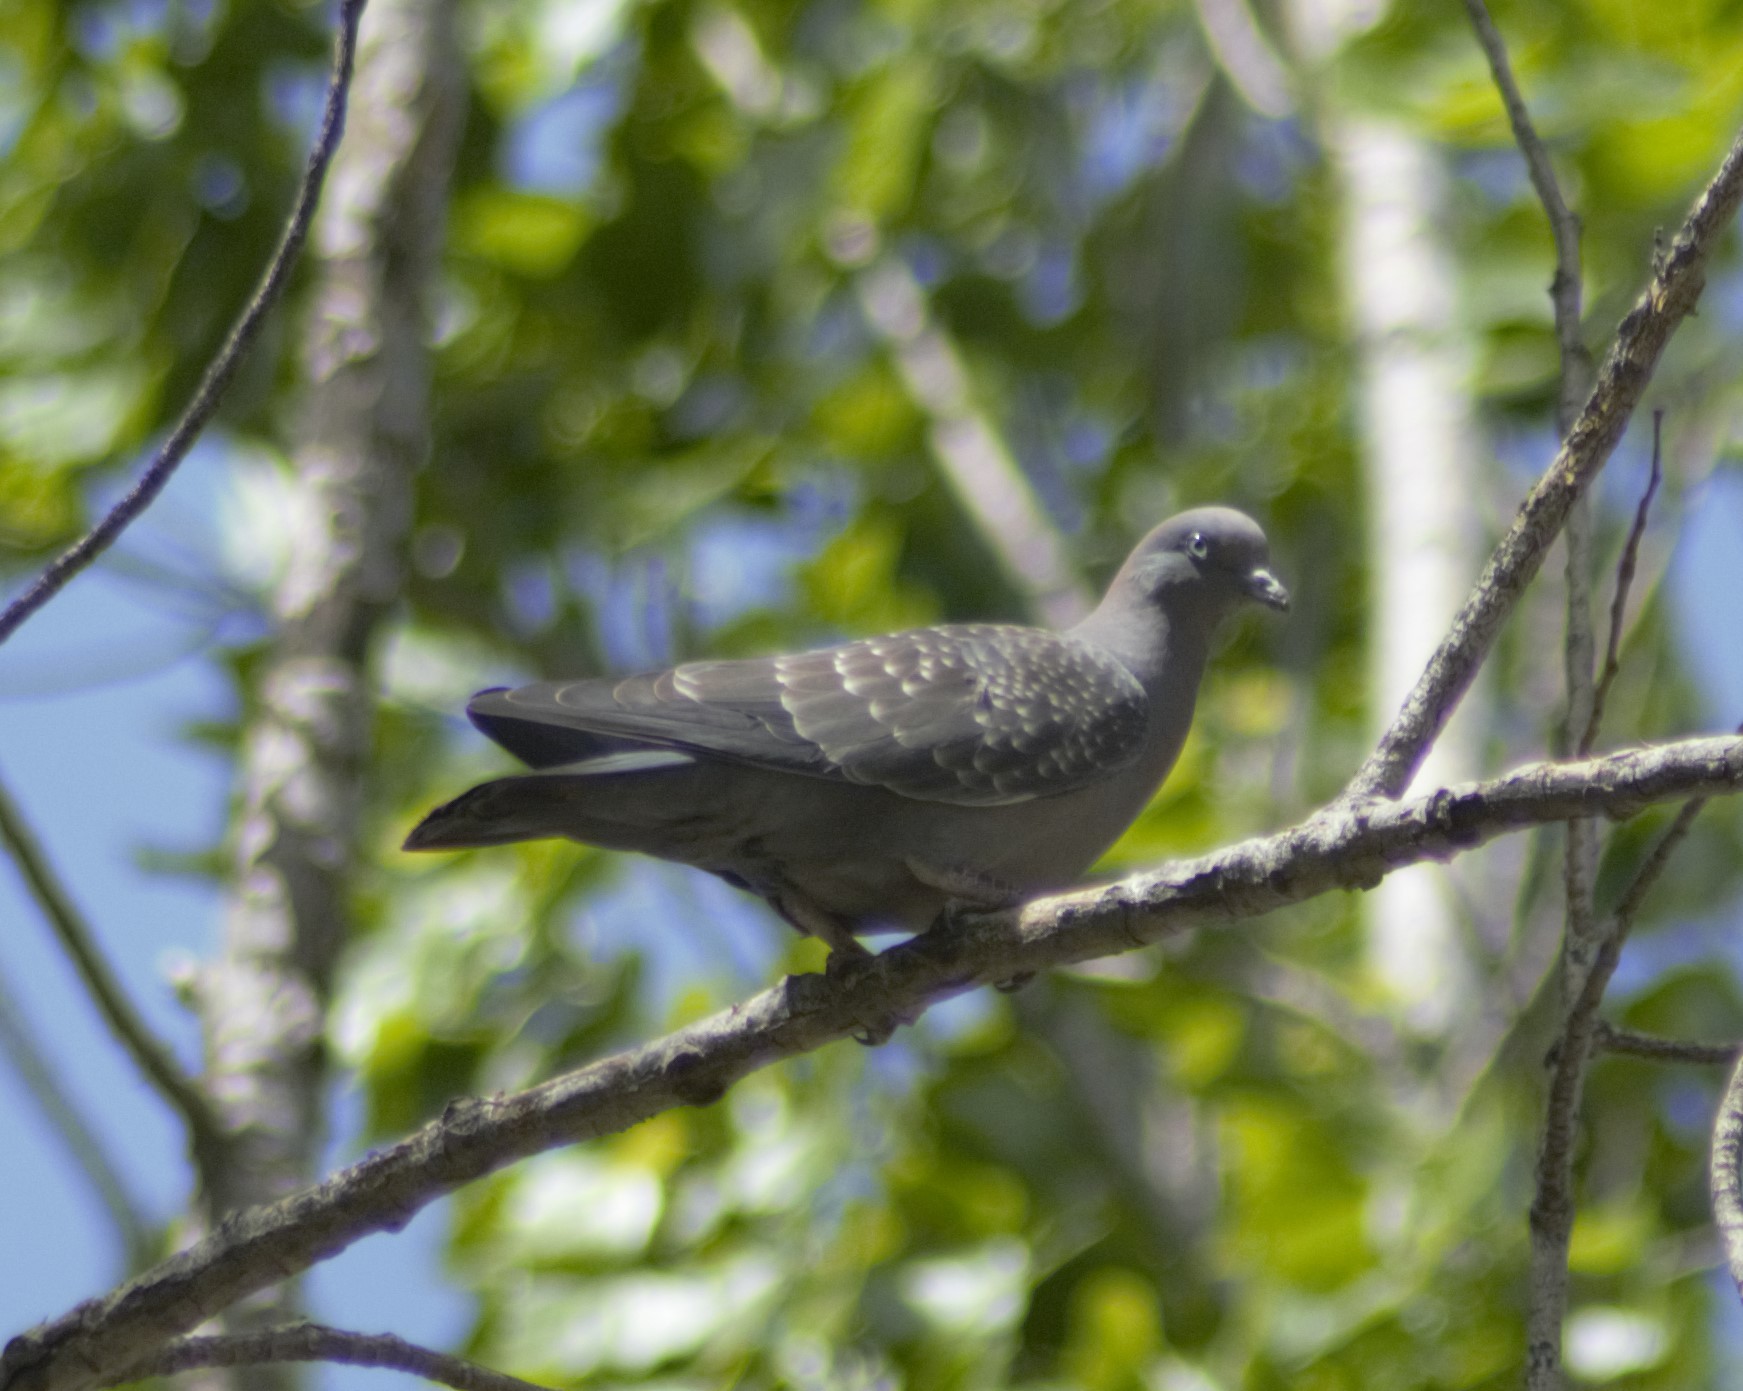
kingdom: Animalia
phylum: Chordata
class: Aves
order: Columbiformes
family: Columbidae
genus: Patagioenas
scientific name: Patagioenas maculosa
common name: Spot-winged pigeon
